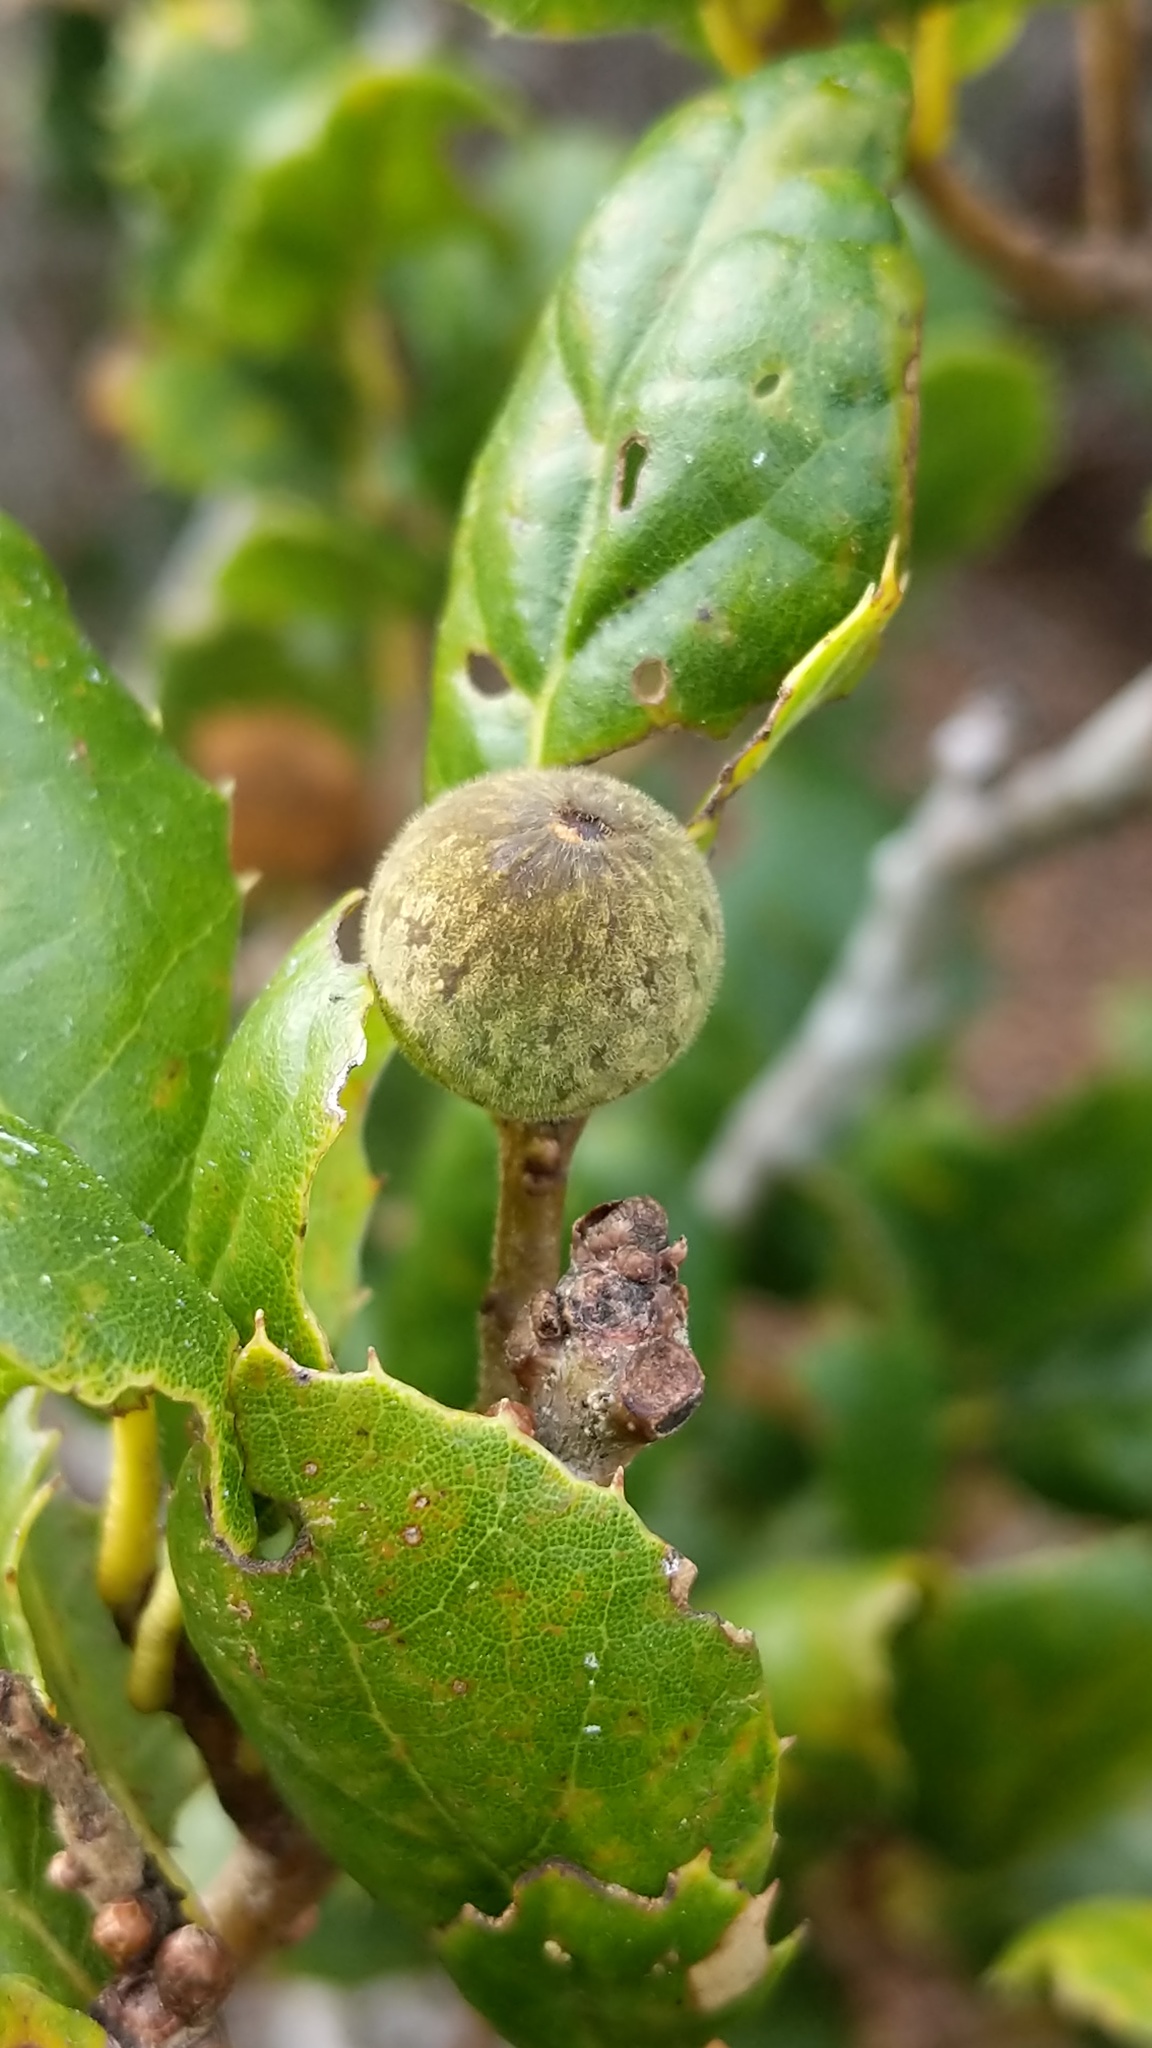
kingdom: Animalia
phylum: Arthropoda
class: Insecta
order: Hymenoptera
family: Cynipidae
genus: Callirhytis
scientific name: Callirhytis
